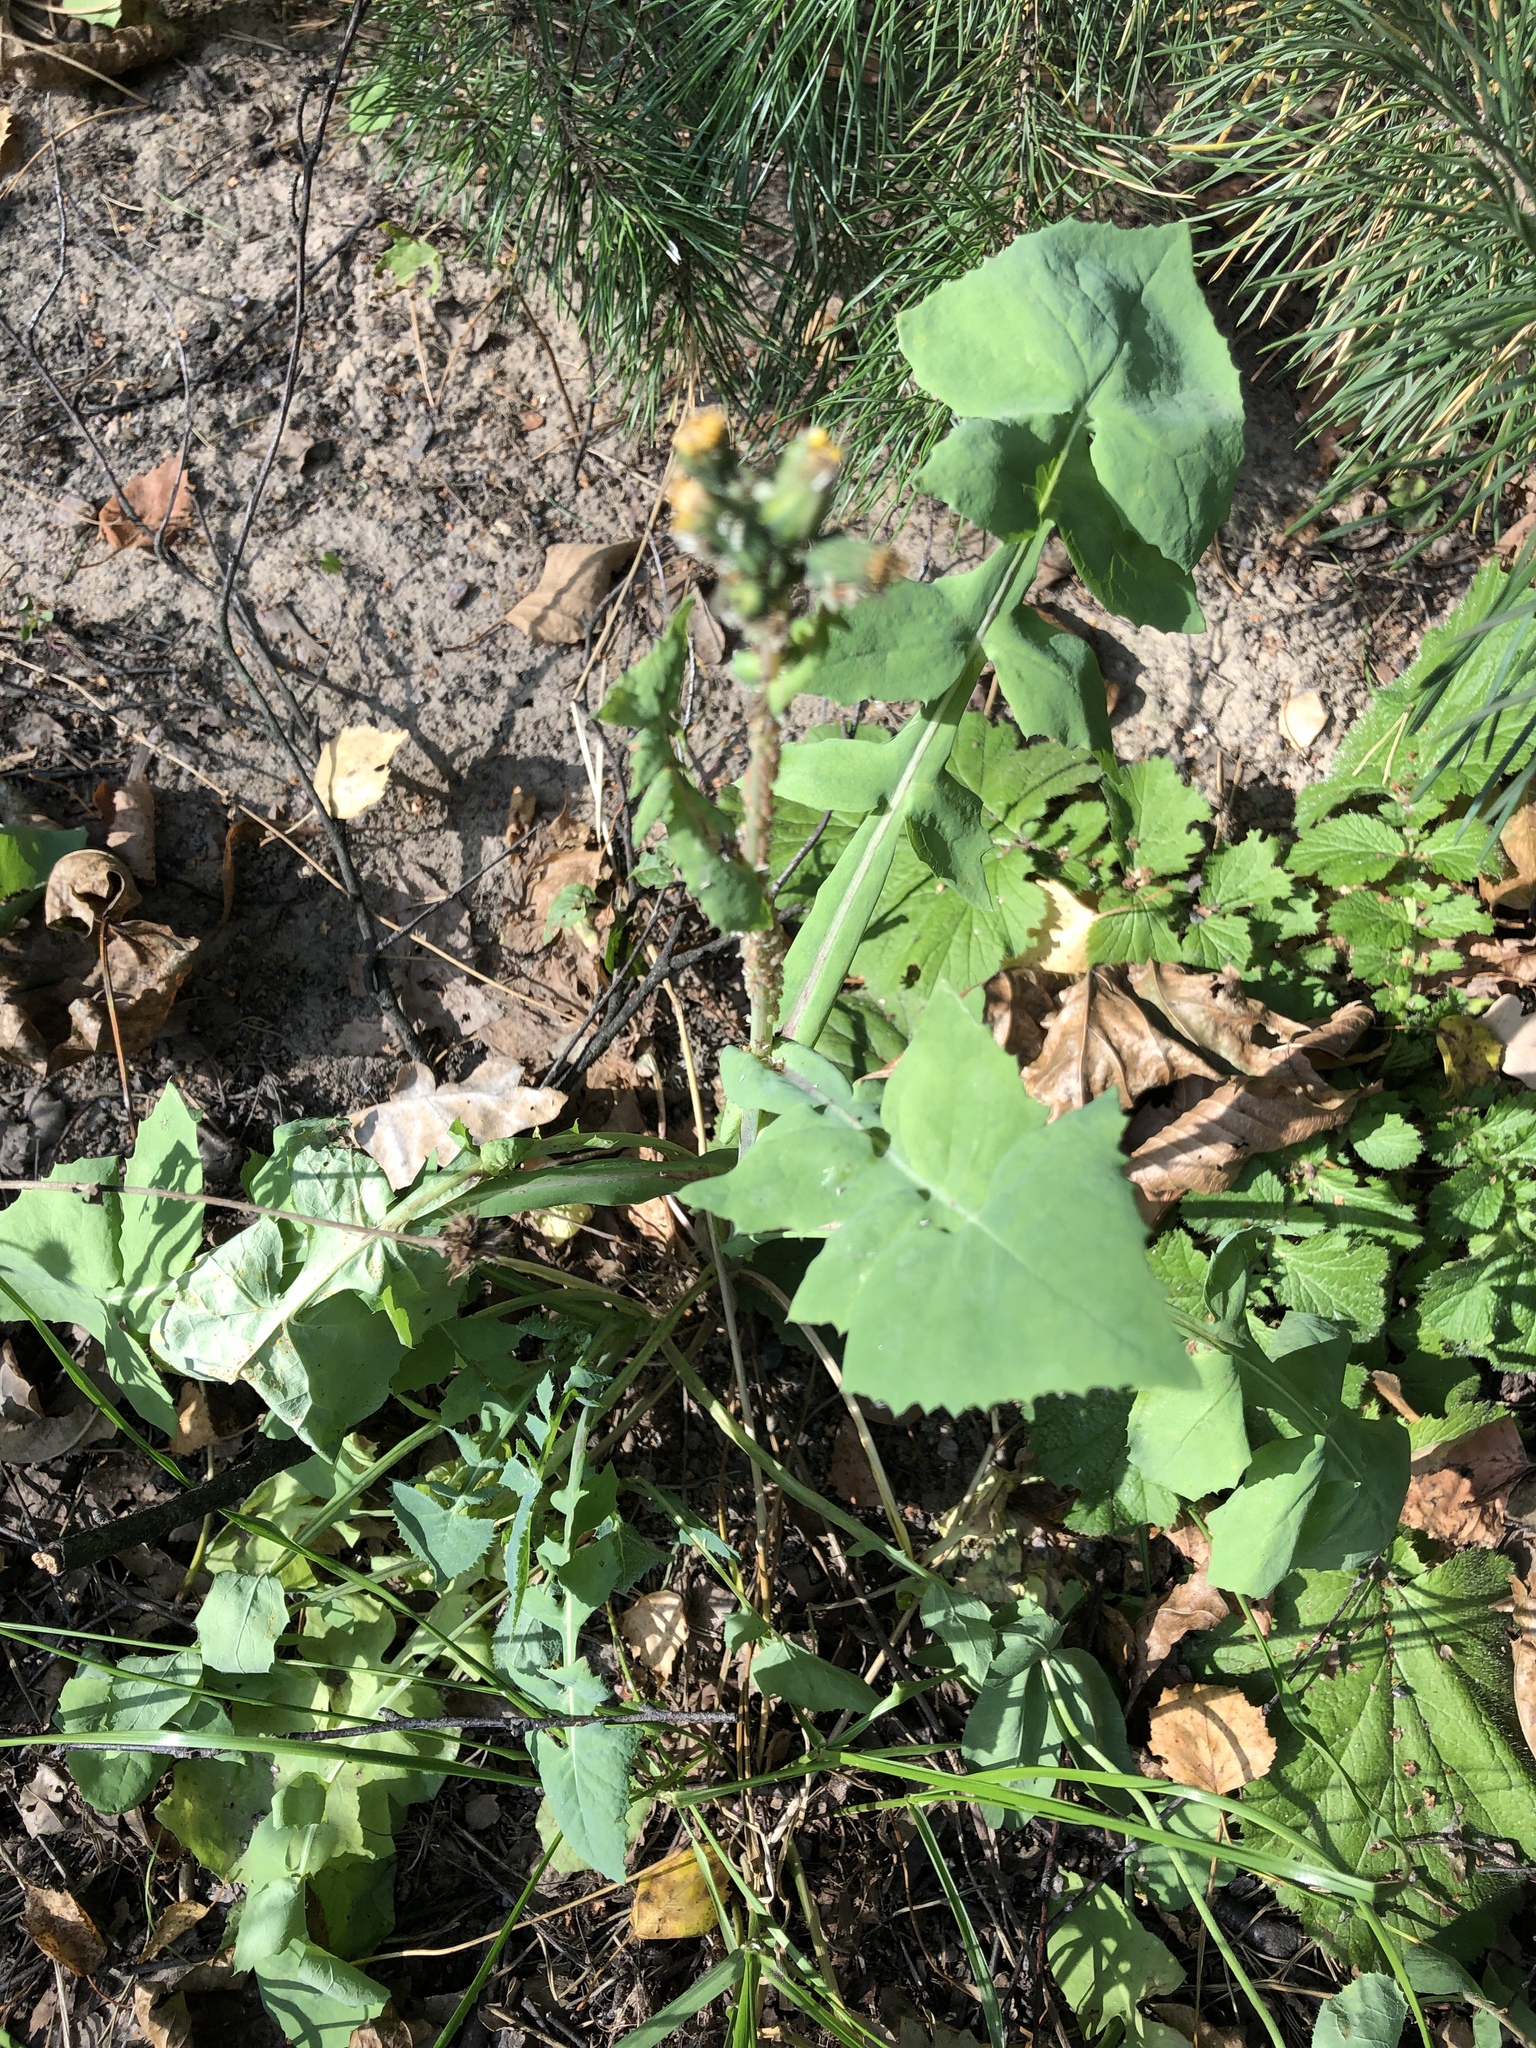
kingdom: Plantae
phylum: Tracheophyta
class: Magnoliopsida
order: Asterales
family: Asteraceae
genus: Sonchus
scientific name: Sonchus oleraceus
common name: Common sowthistle
